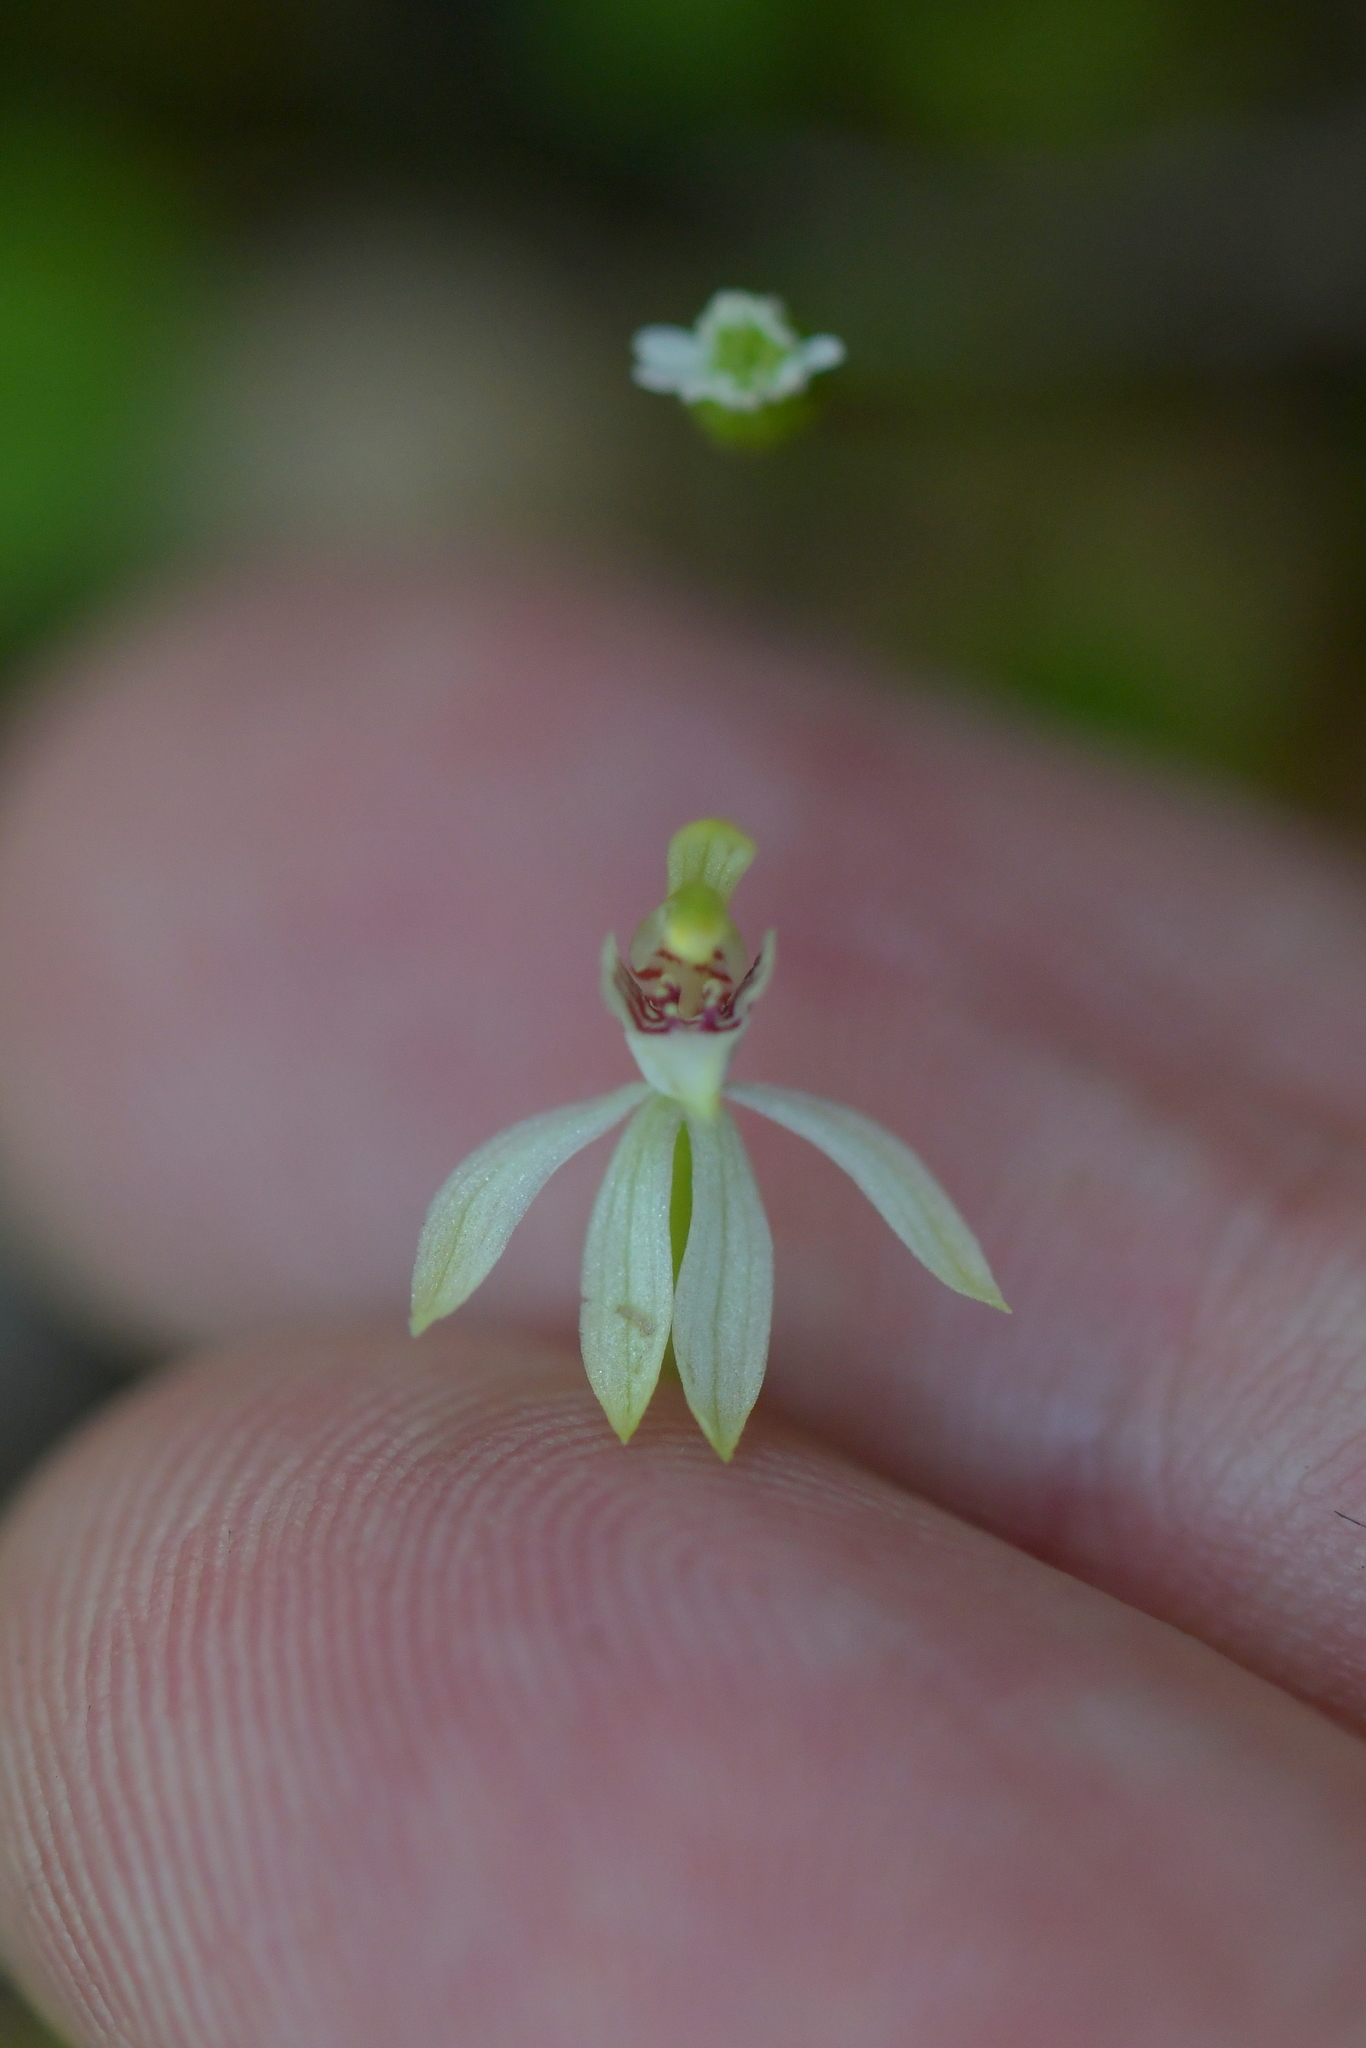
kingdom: Plantae
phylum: Tracheophyta
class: Liliopsida
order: Asparagales
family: Orchidaceae
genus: Caladenia
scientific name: Caladenia chlorostyla
